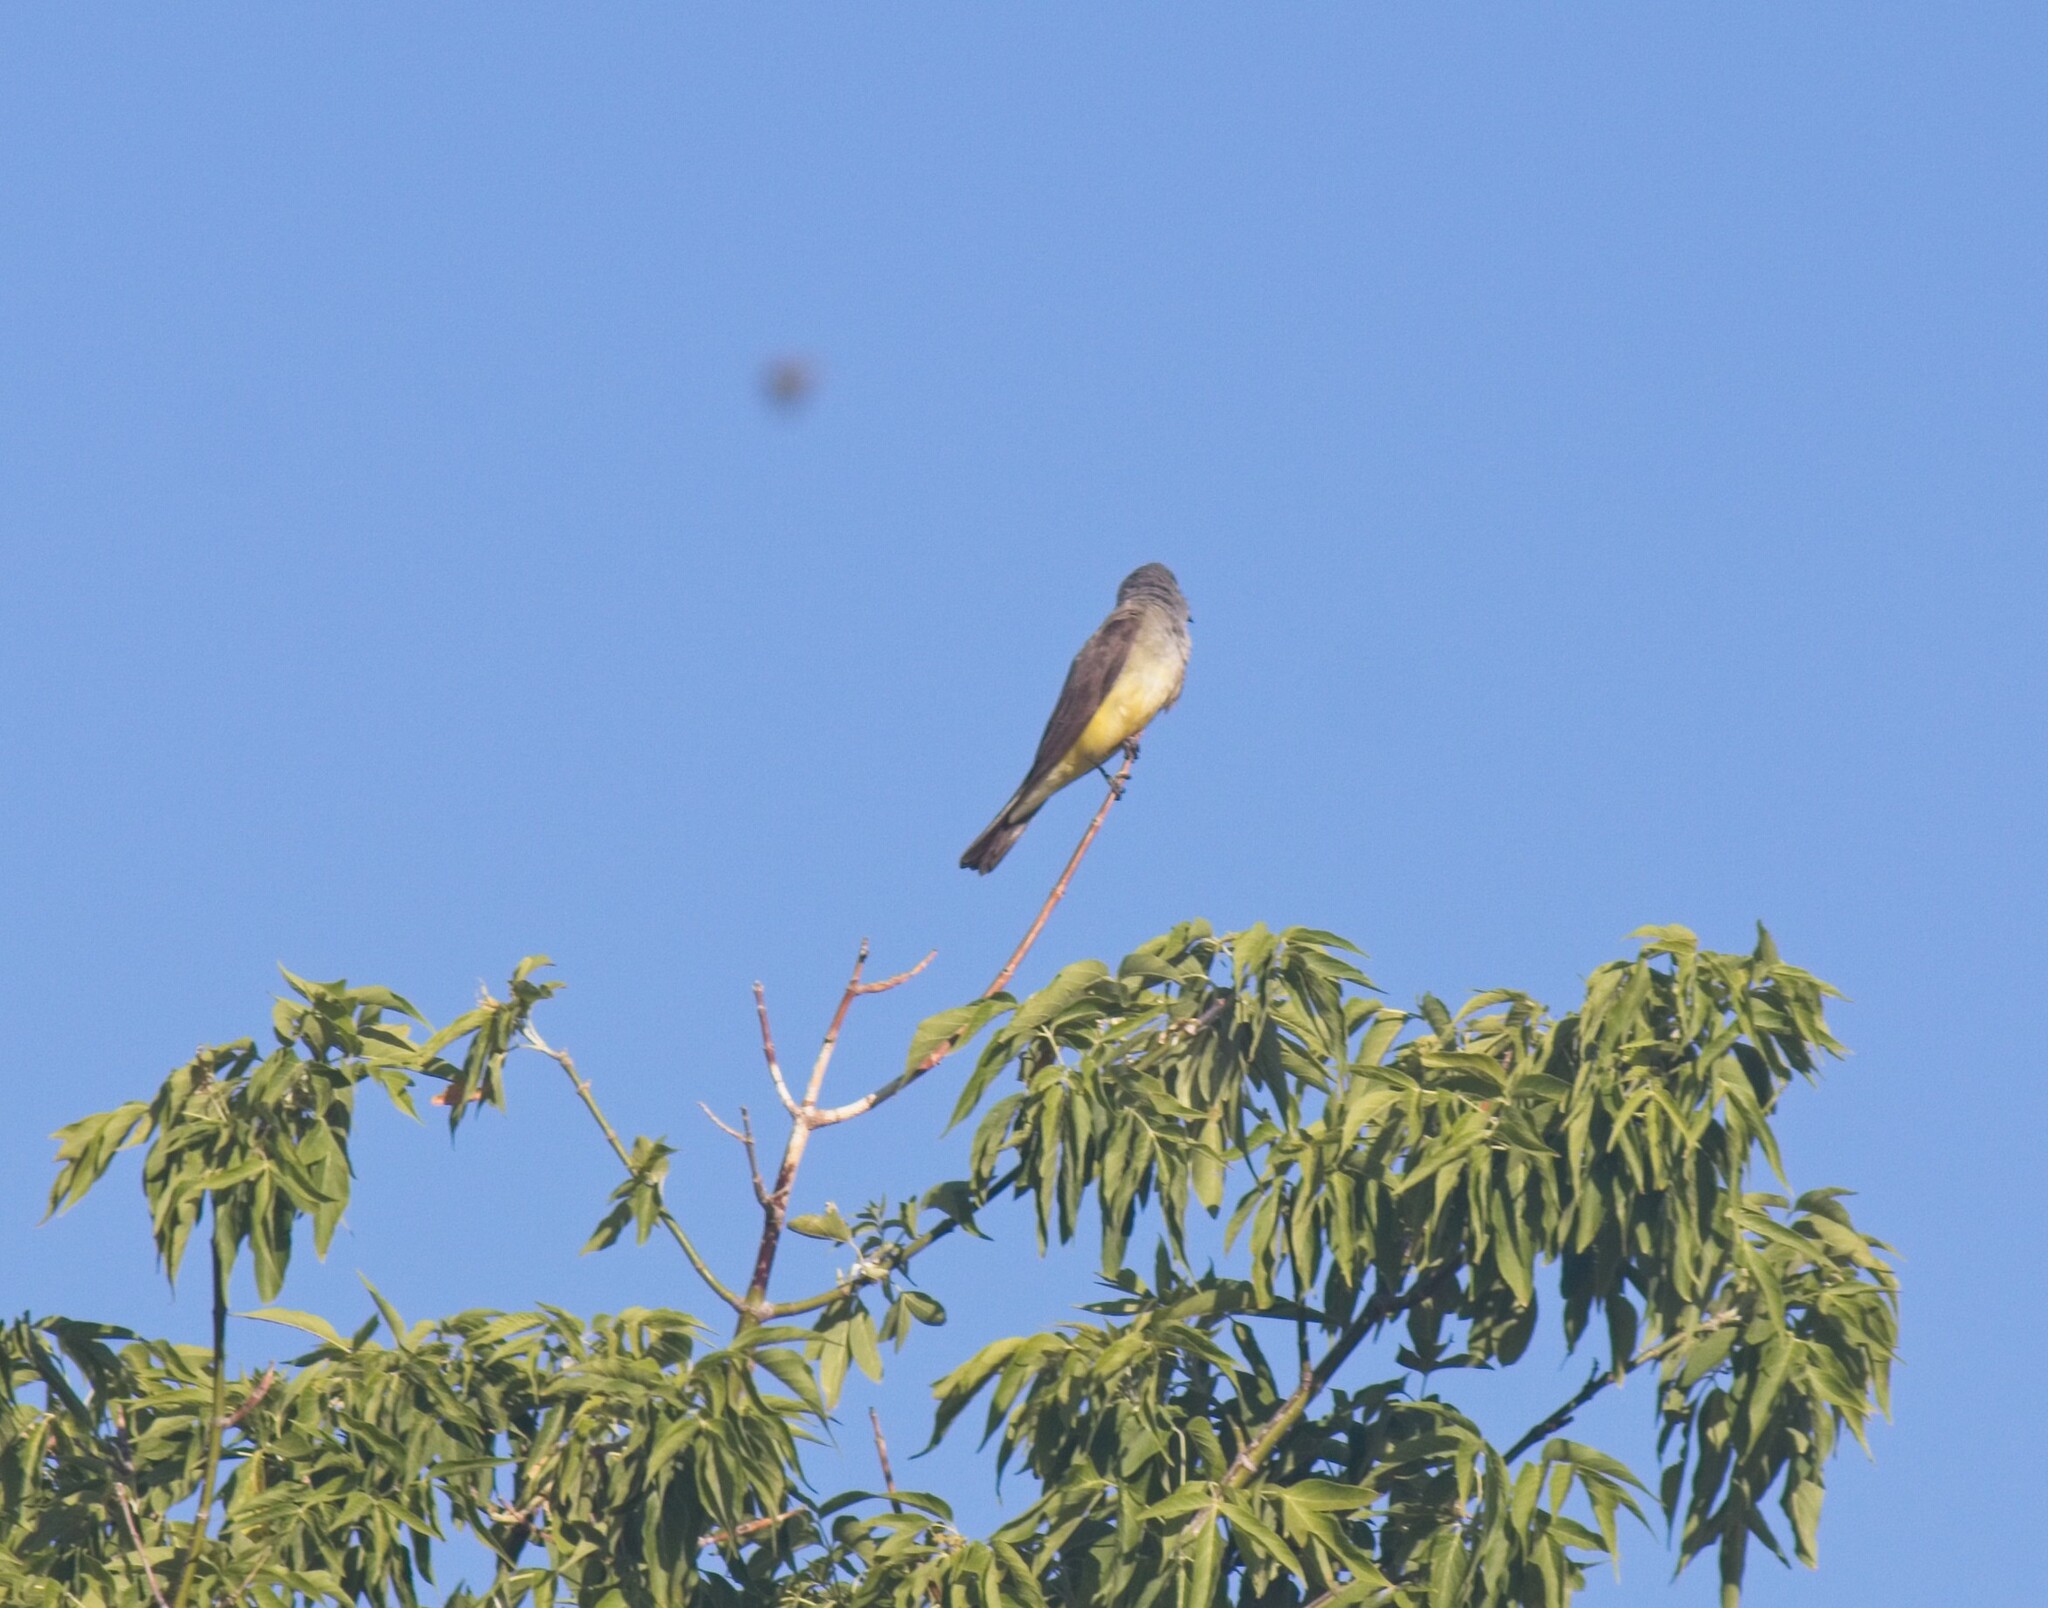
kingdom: Animalia
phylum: Chordata
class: Aves
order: Passeriformes
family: Tyrannidae
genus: Tyrannus
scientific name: Tyrannus verticalis
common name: Western kingbird
